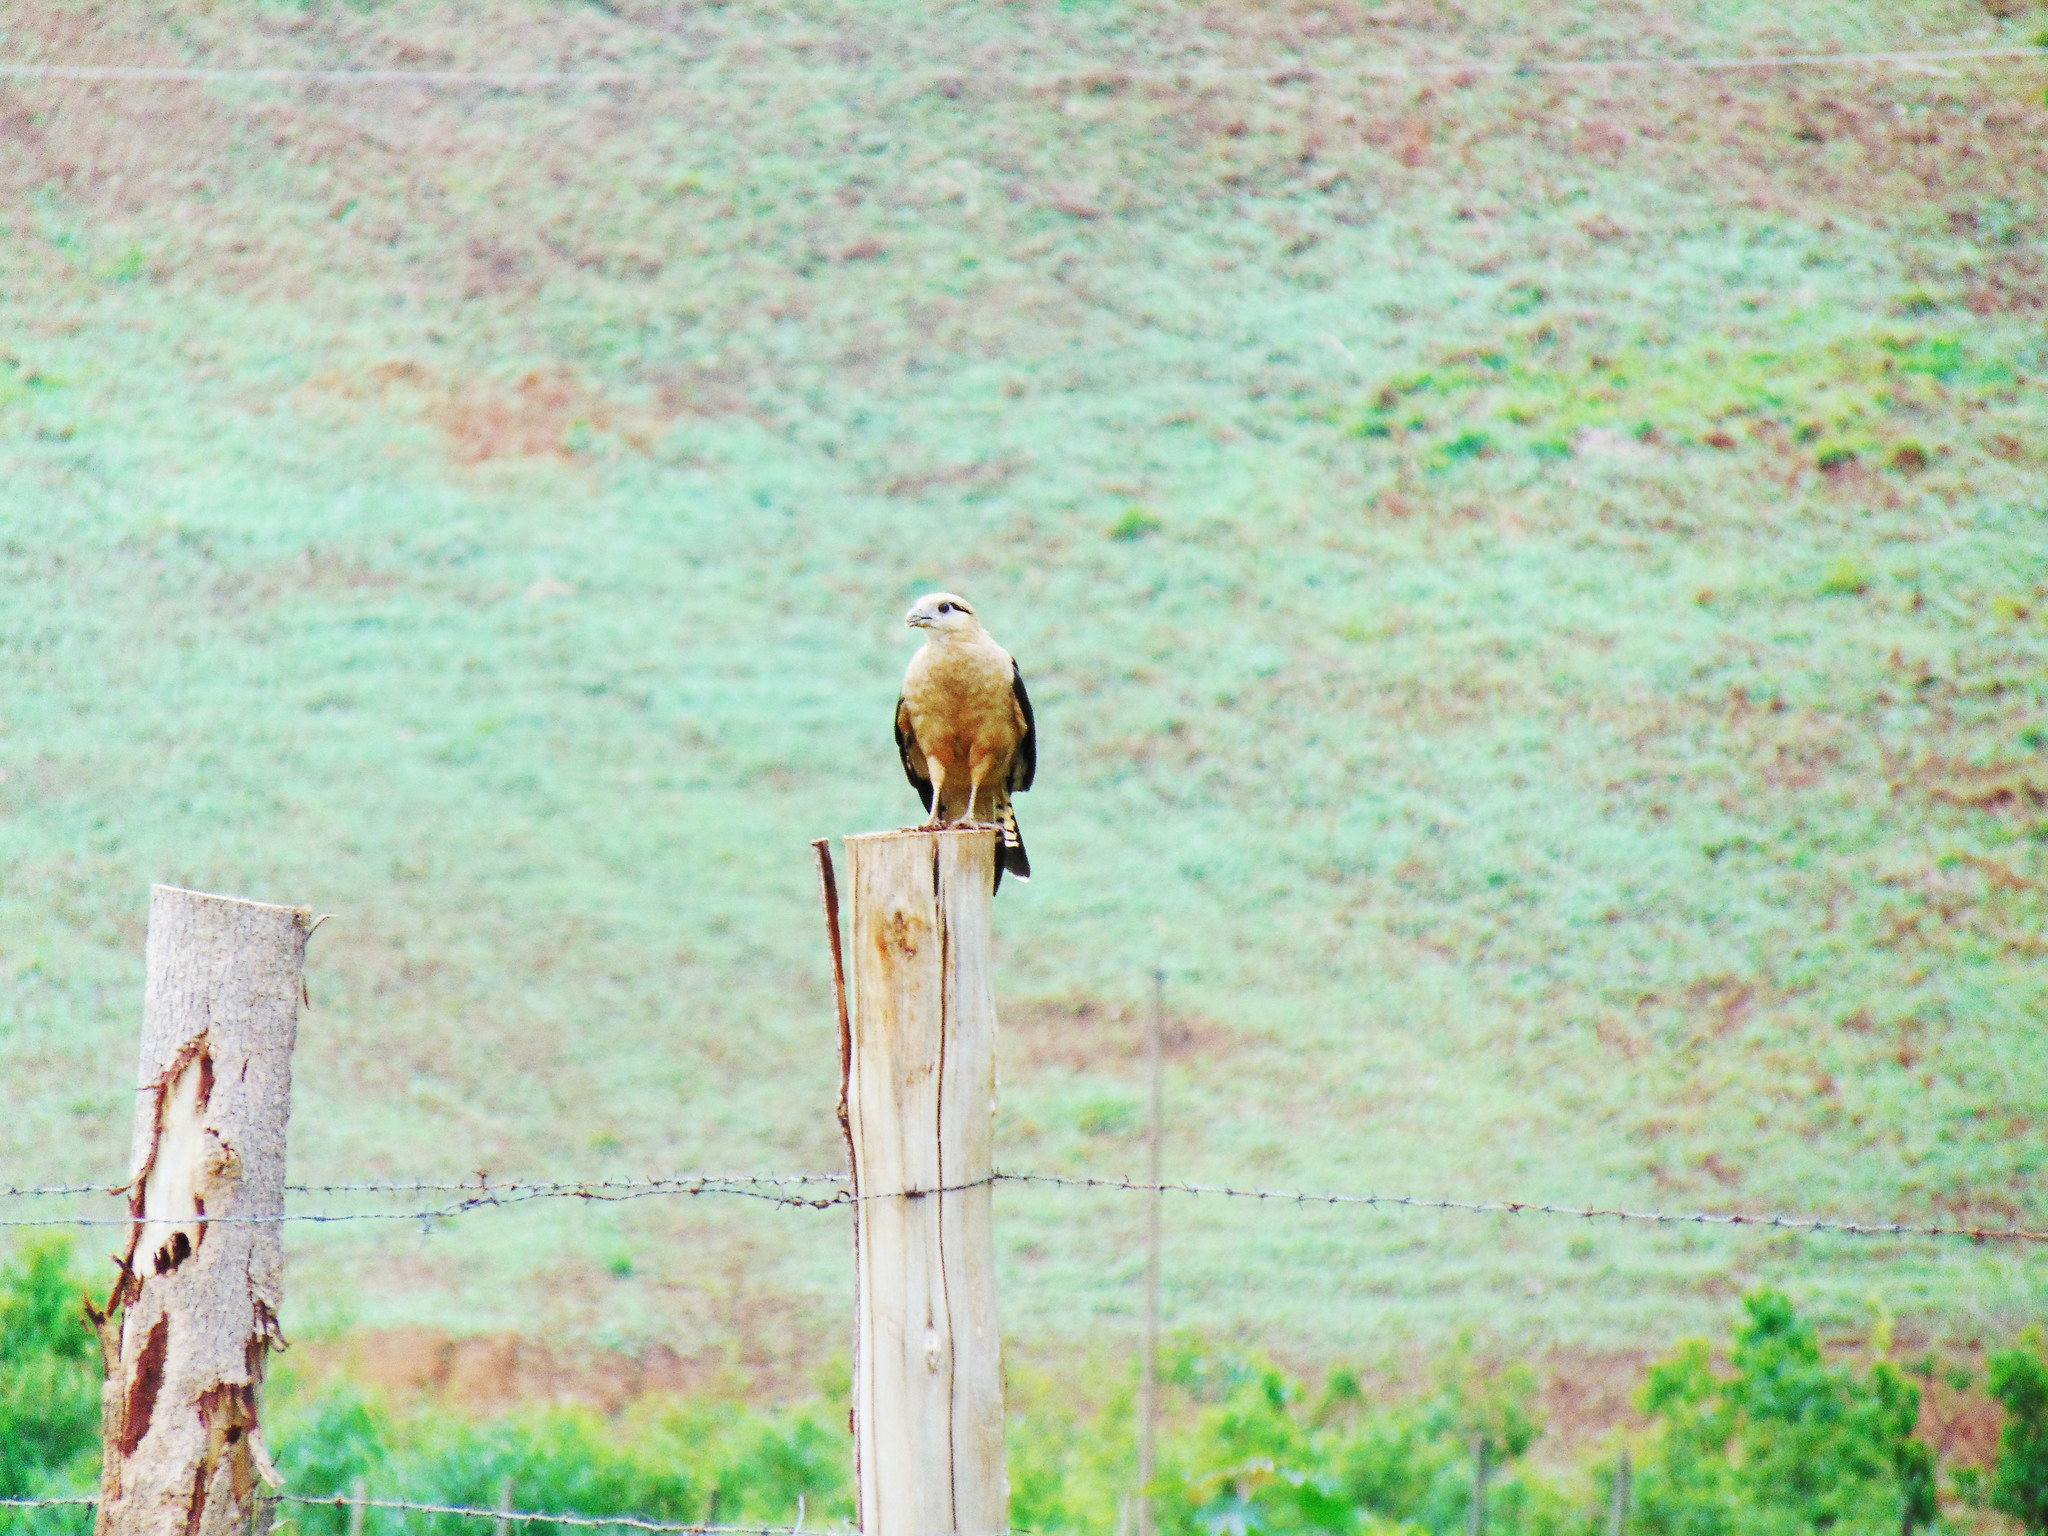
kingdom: Animalia
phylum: Chordata
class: Aves
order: Falconiformes
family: Falconidae
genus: Daptrius
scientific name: Daptrius
